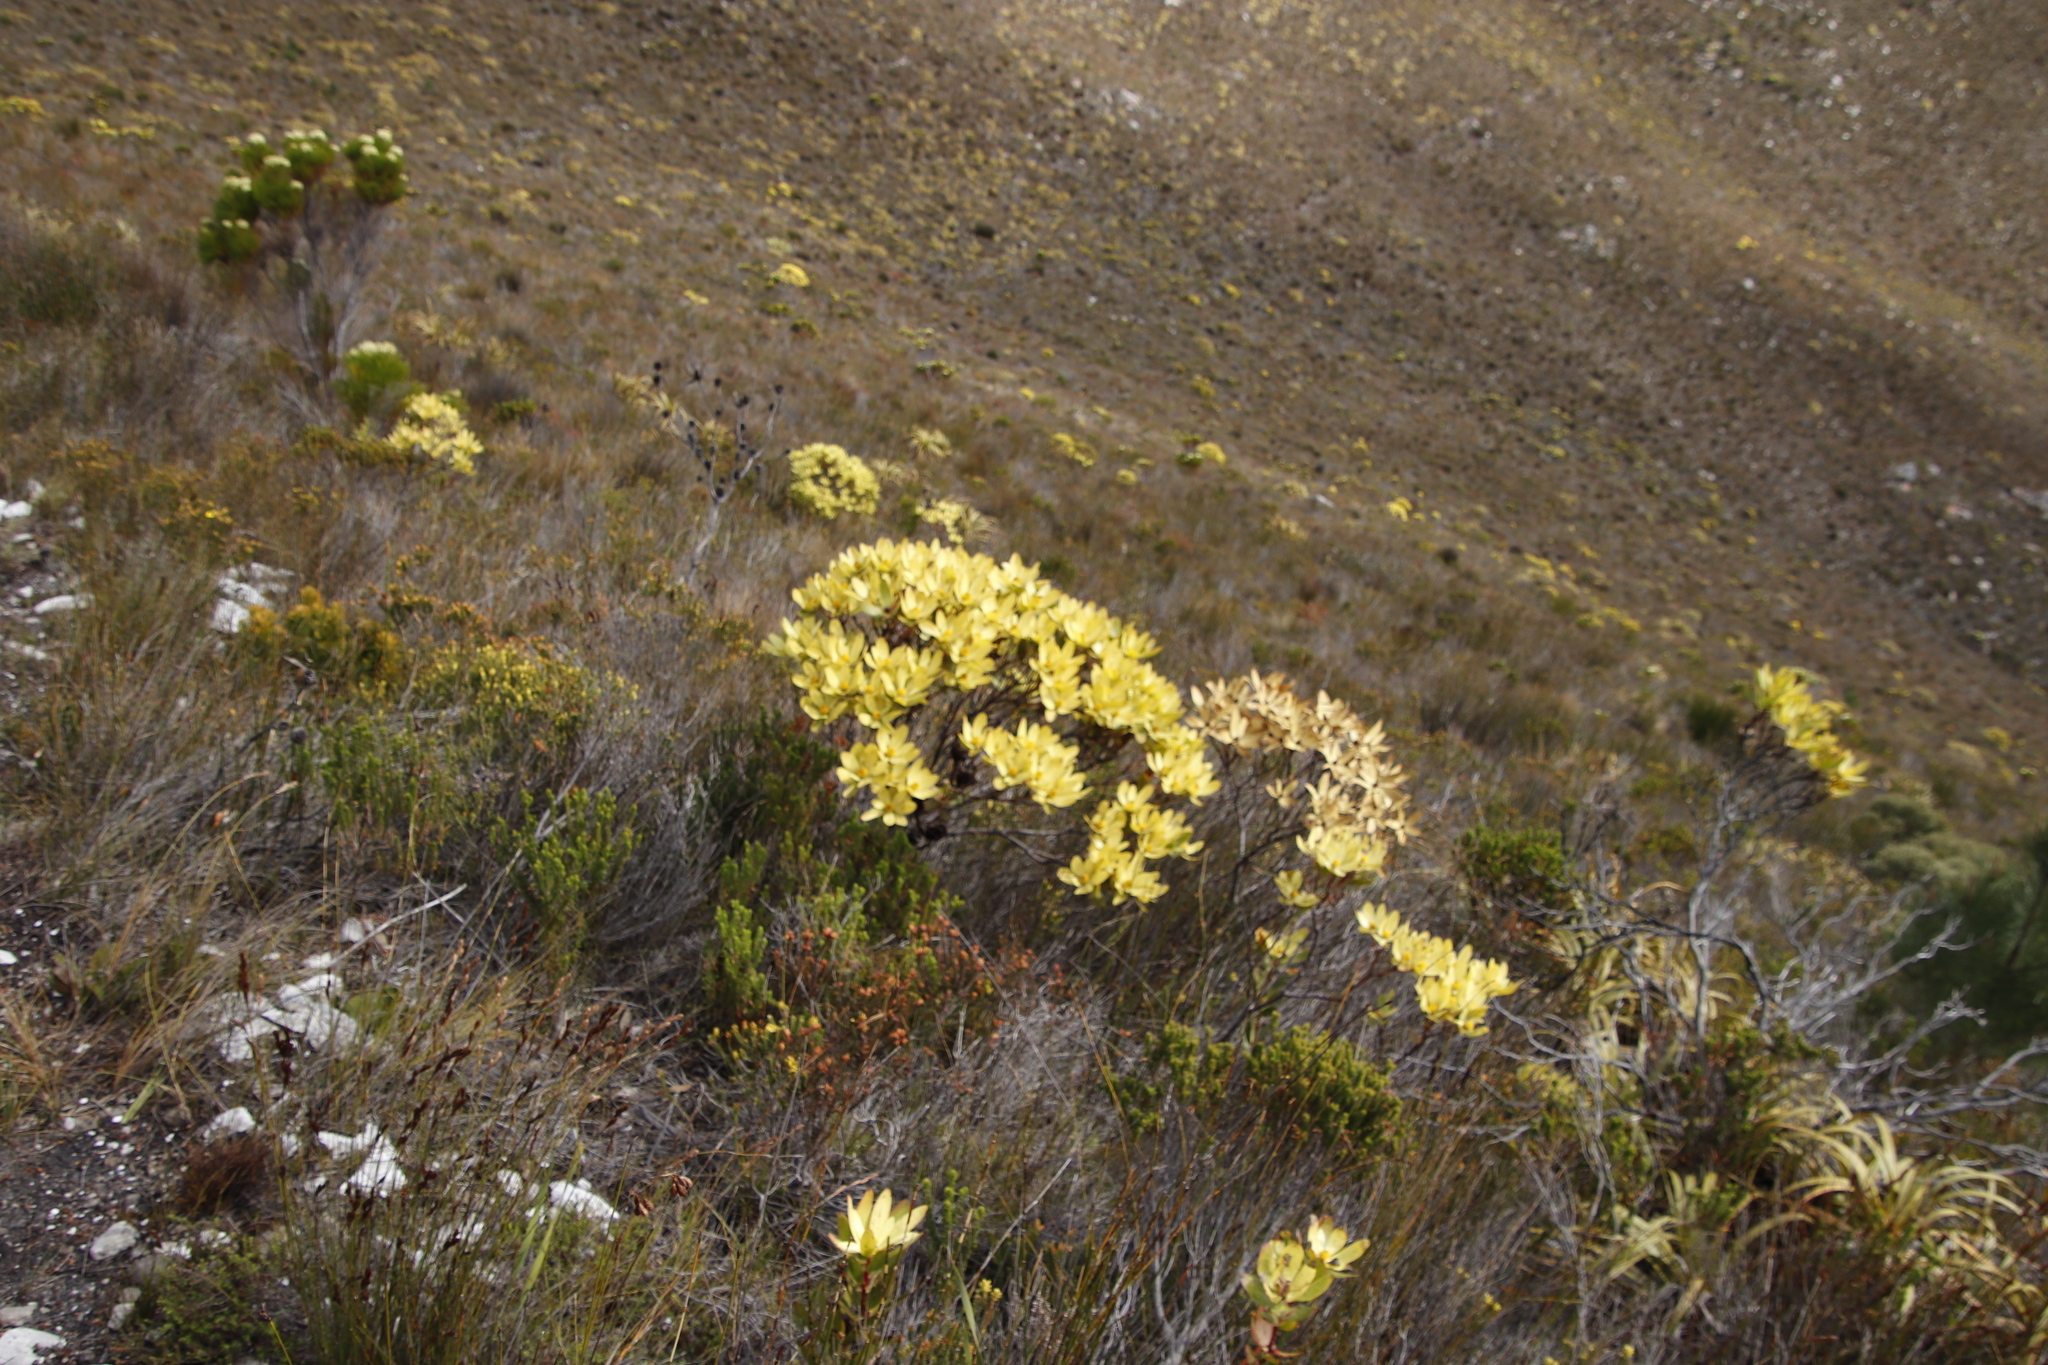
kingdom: Plantae
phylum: Tracheophyta
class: Magnoliopsida
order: Proteales
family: Proteaceae
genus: Leucadendron
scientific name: Leucadendron gandogeri
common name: Broad-leaf conebush
